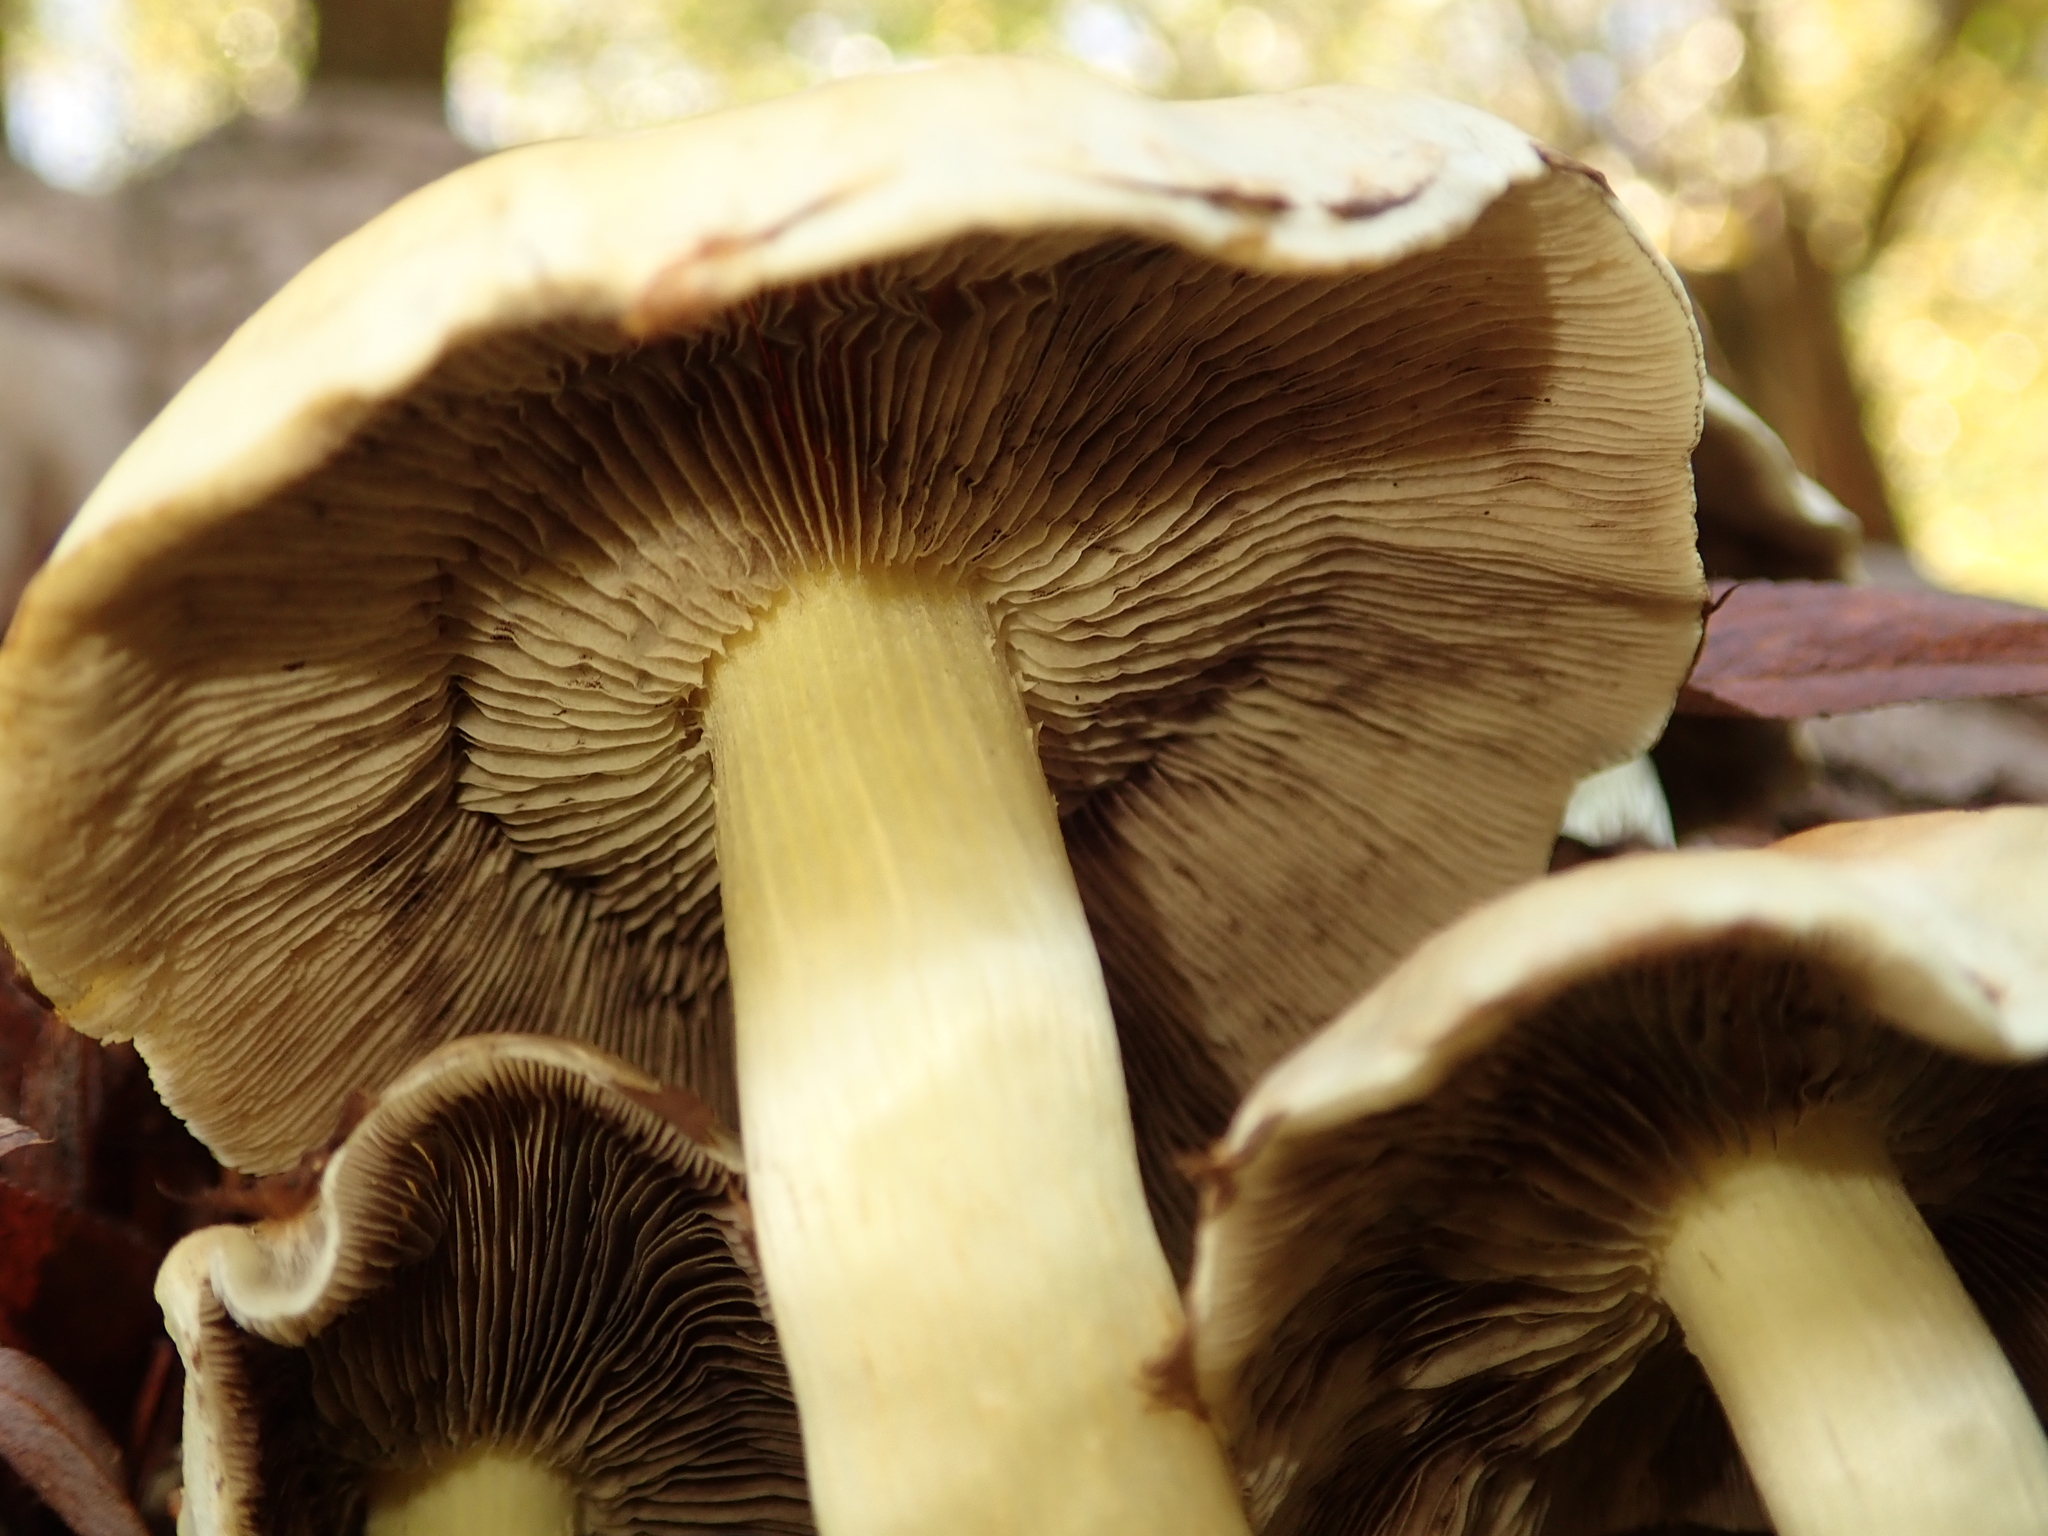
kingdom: Fungi
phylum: Basidiomycota
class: Agaricomycetes
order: Agaricales
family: Strophariaceae
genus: Hypholoma
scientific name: Hypholoma fasciculare
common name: Sulphur tuft
